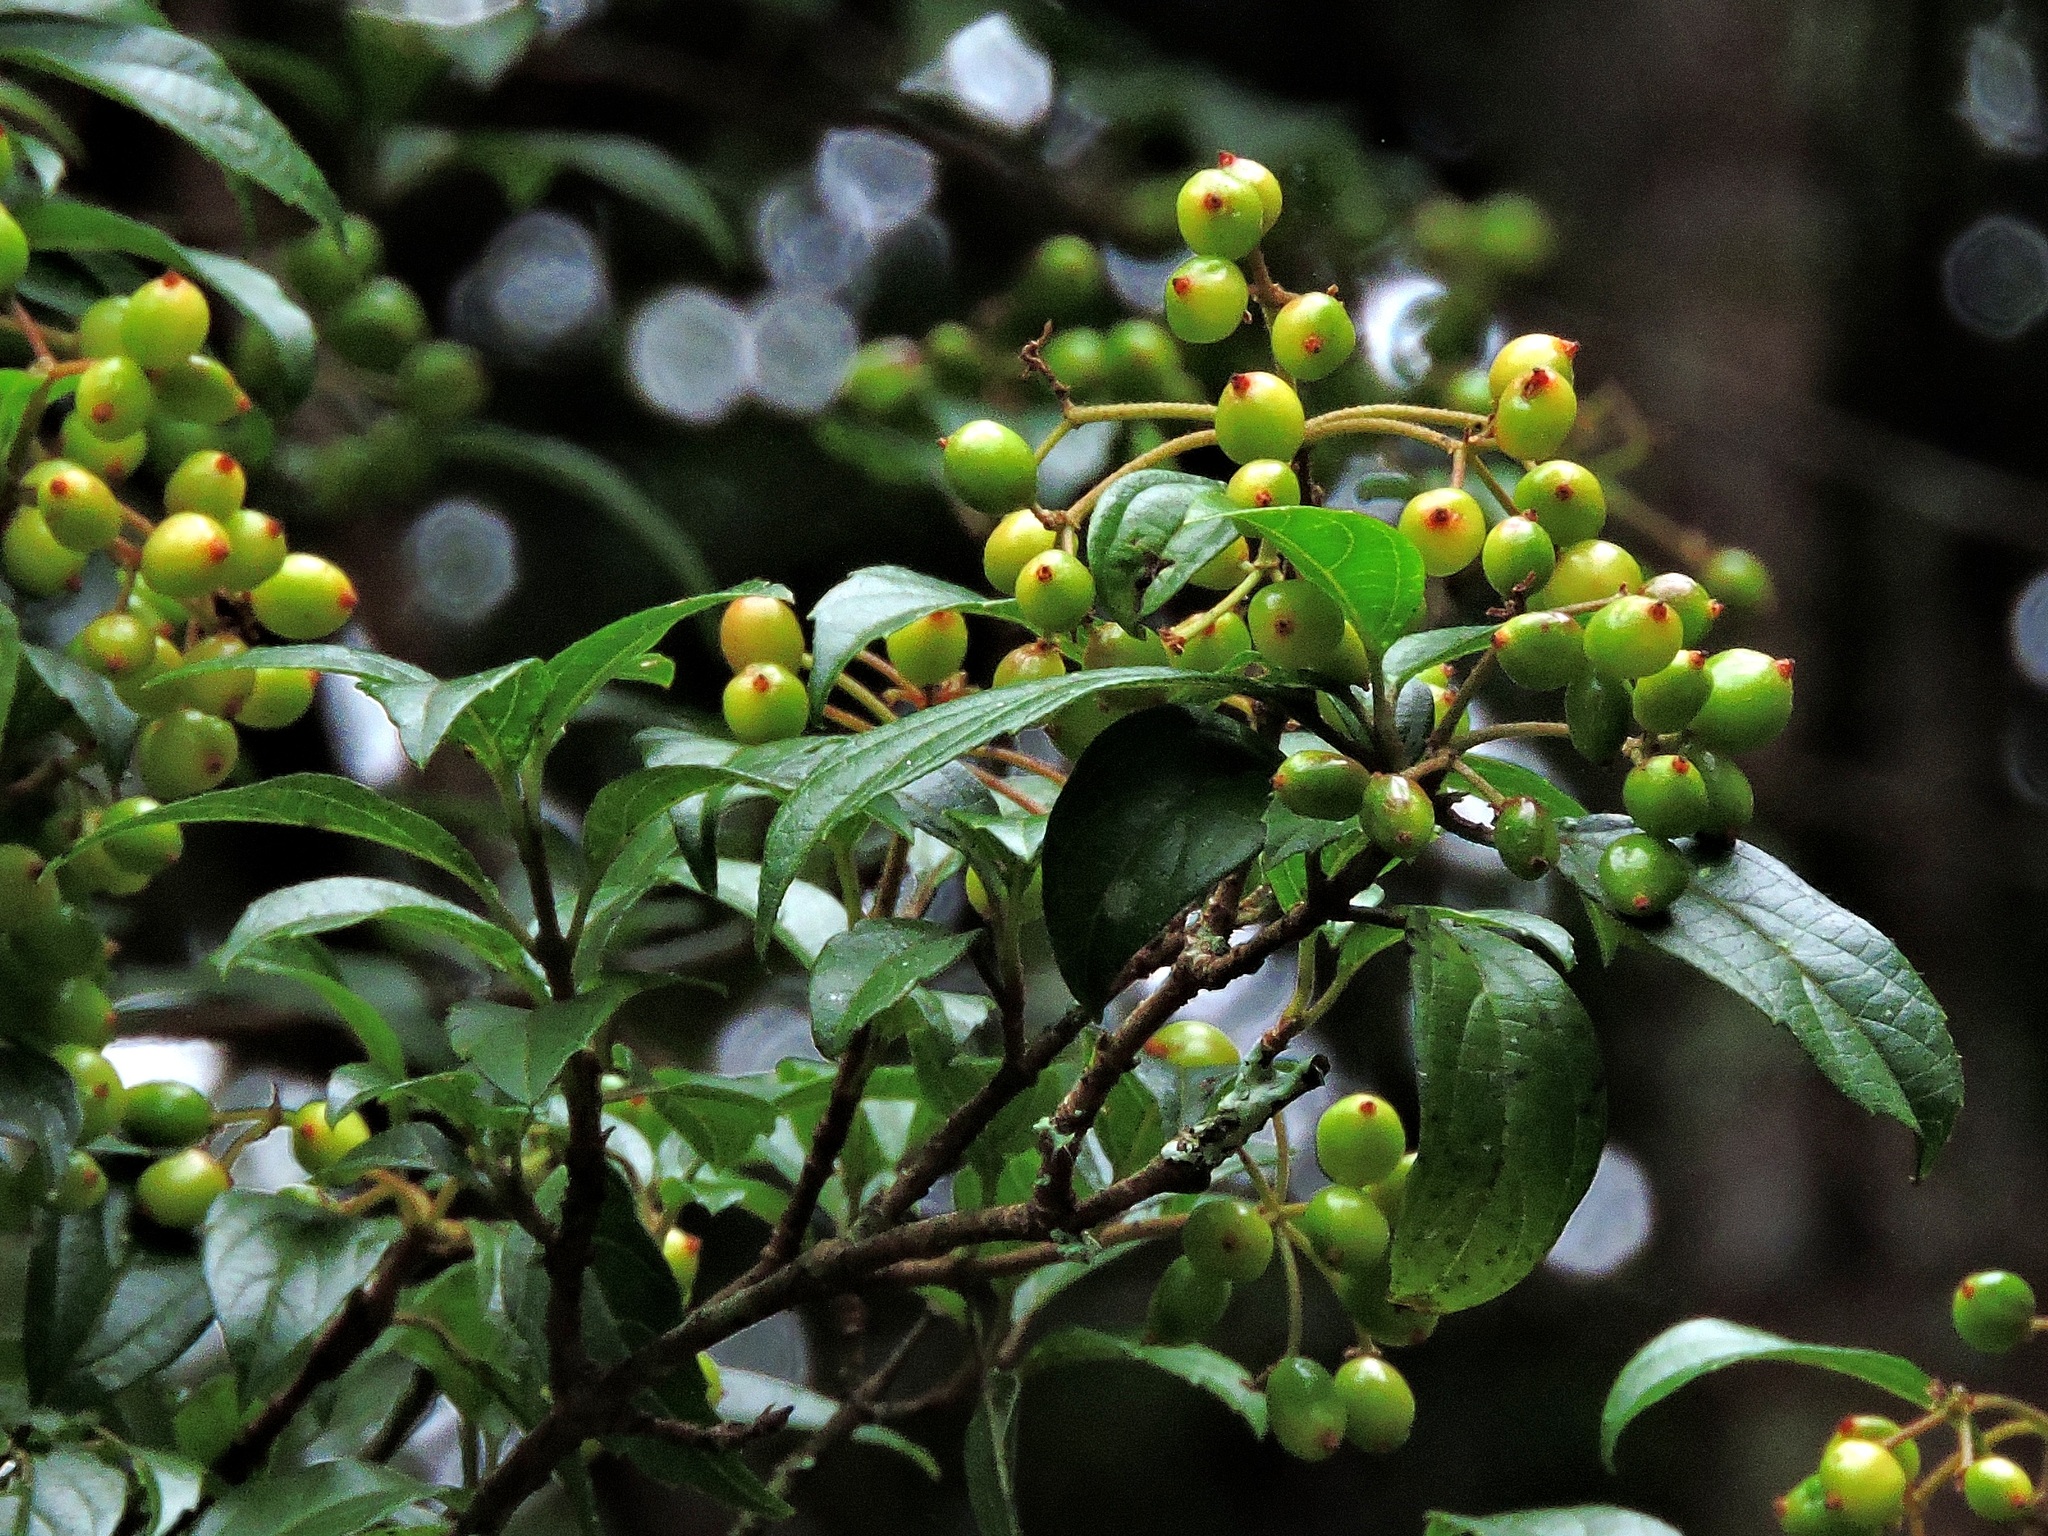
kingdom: Plantae
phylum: Tracheophyta
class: Magnoliopsida
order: Dipsacales
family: Viburnaceae
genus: Viburnum
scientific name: Viburnum foetidum
